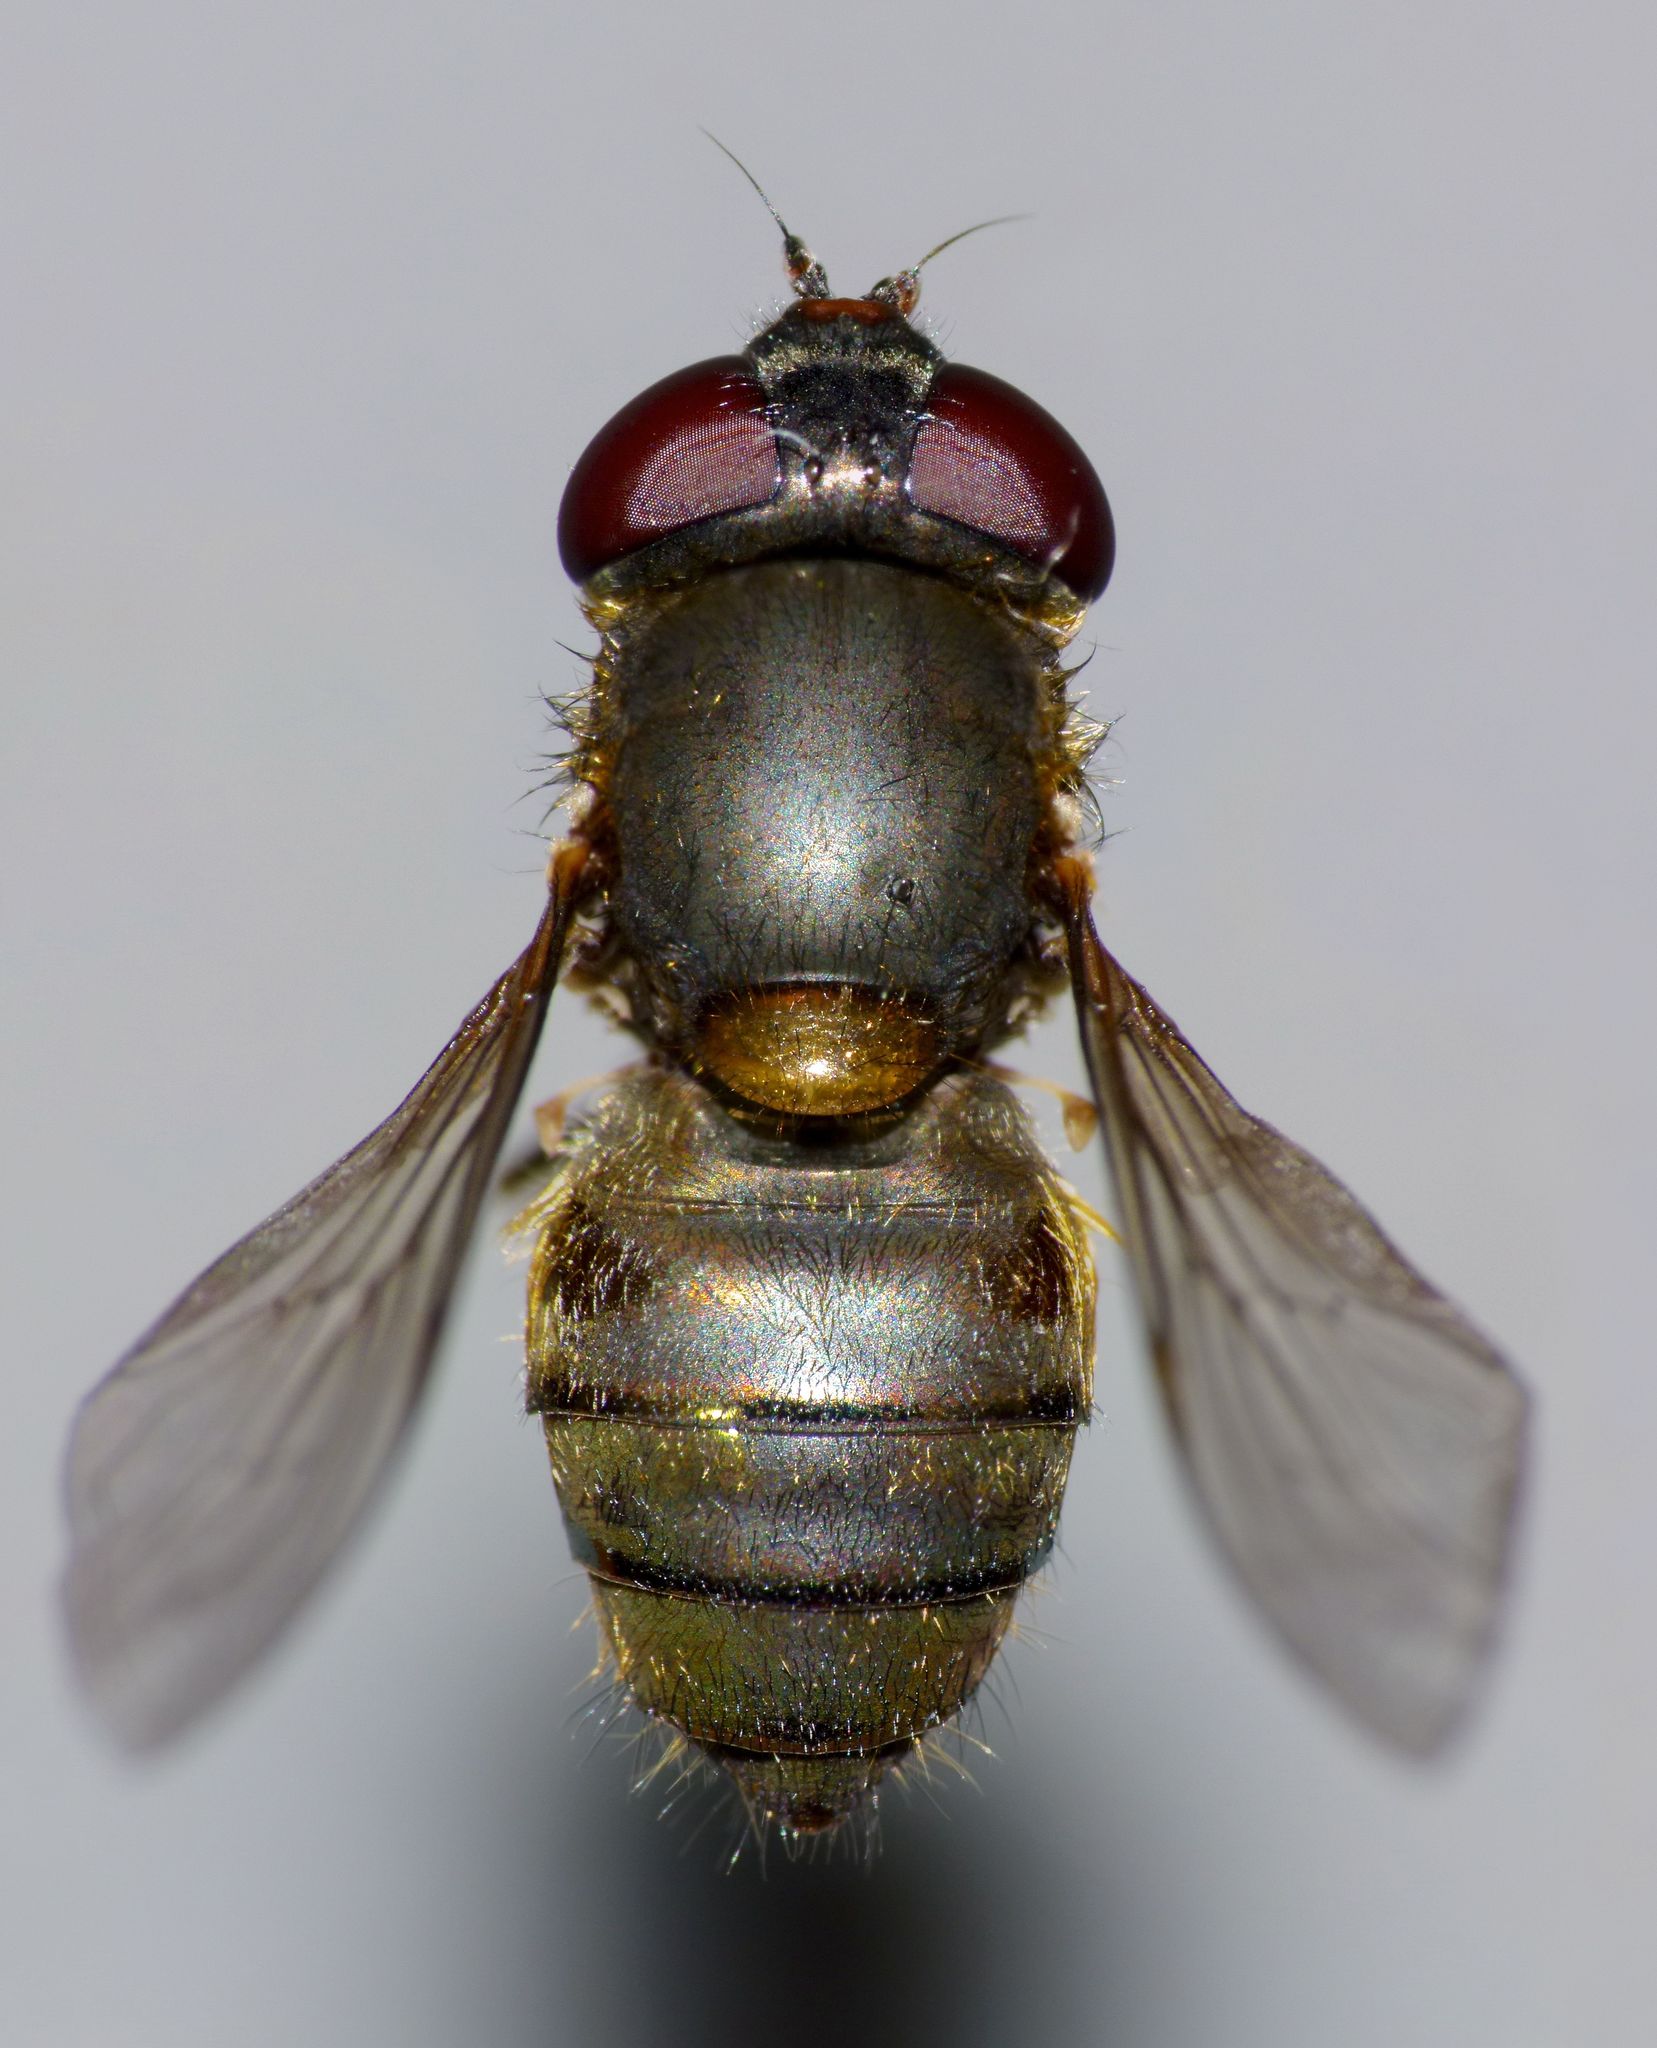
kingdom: Animalia
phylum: Arthropoda
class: Insecta
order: Diptera
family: Syrphidae
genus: Helophilus
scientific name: Helophilus chathamensis
